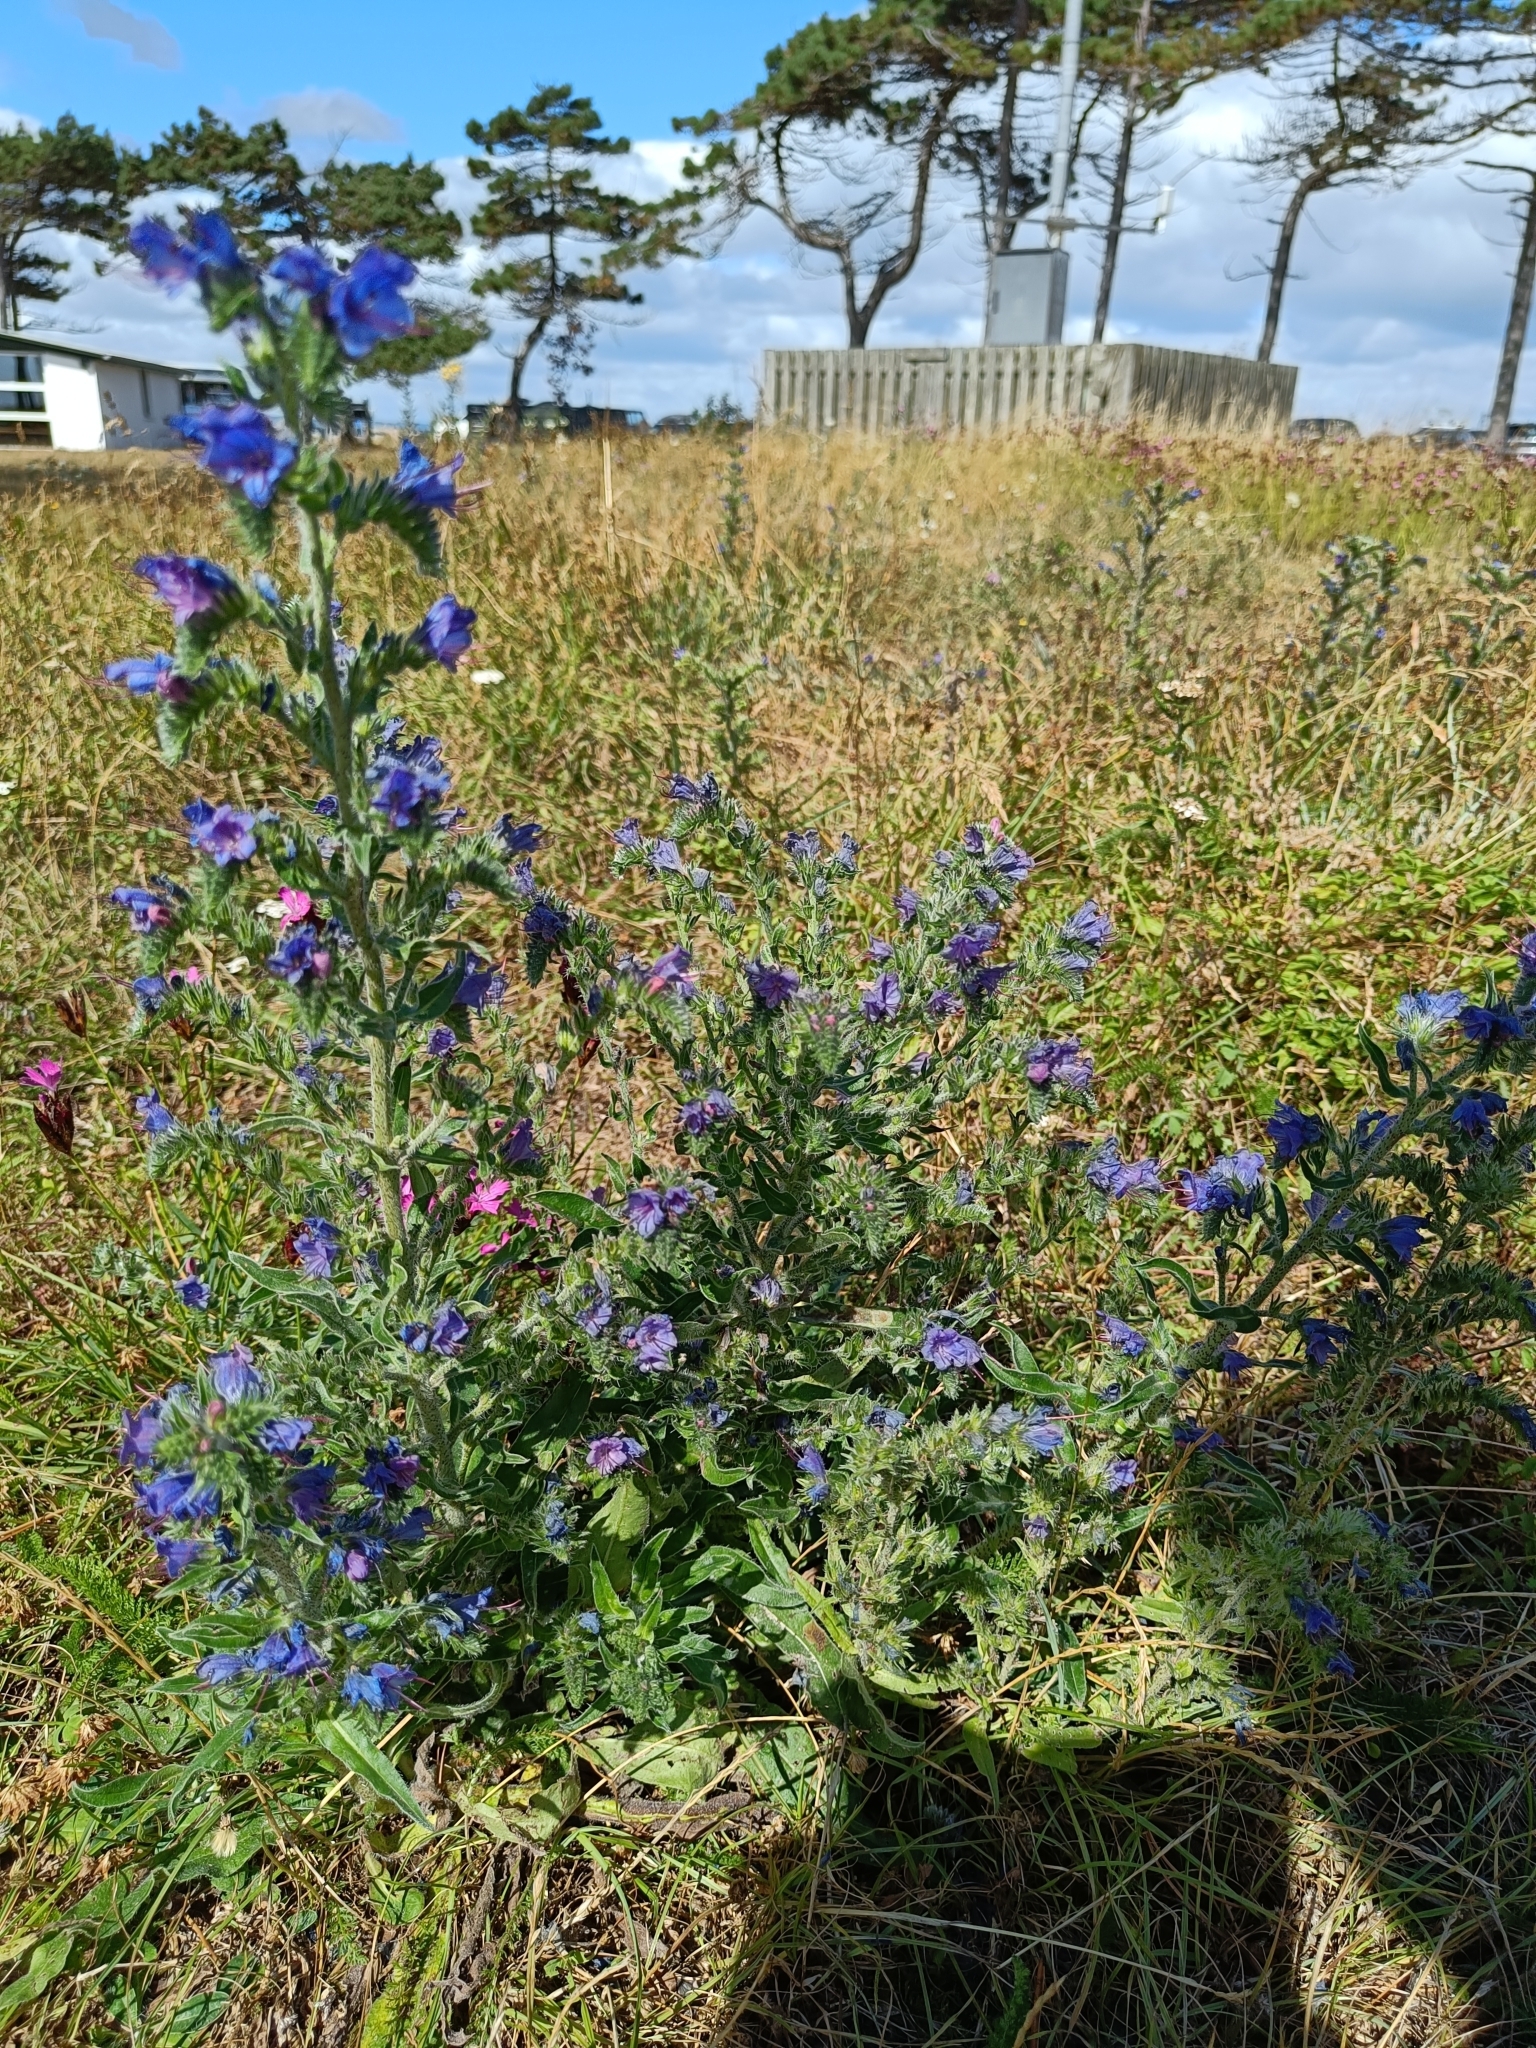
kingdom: Plantae
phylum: Tracheophyta
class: Magnoliopsida
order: Boraginales
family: Boraginaceae
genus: Echium
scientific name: Echium vulgare
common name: Common viper's bugloss
